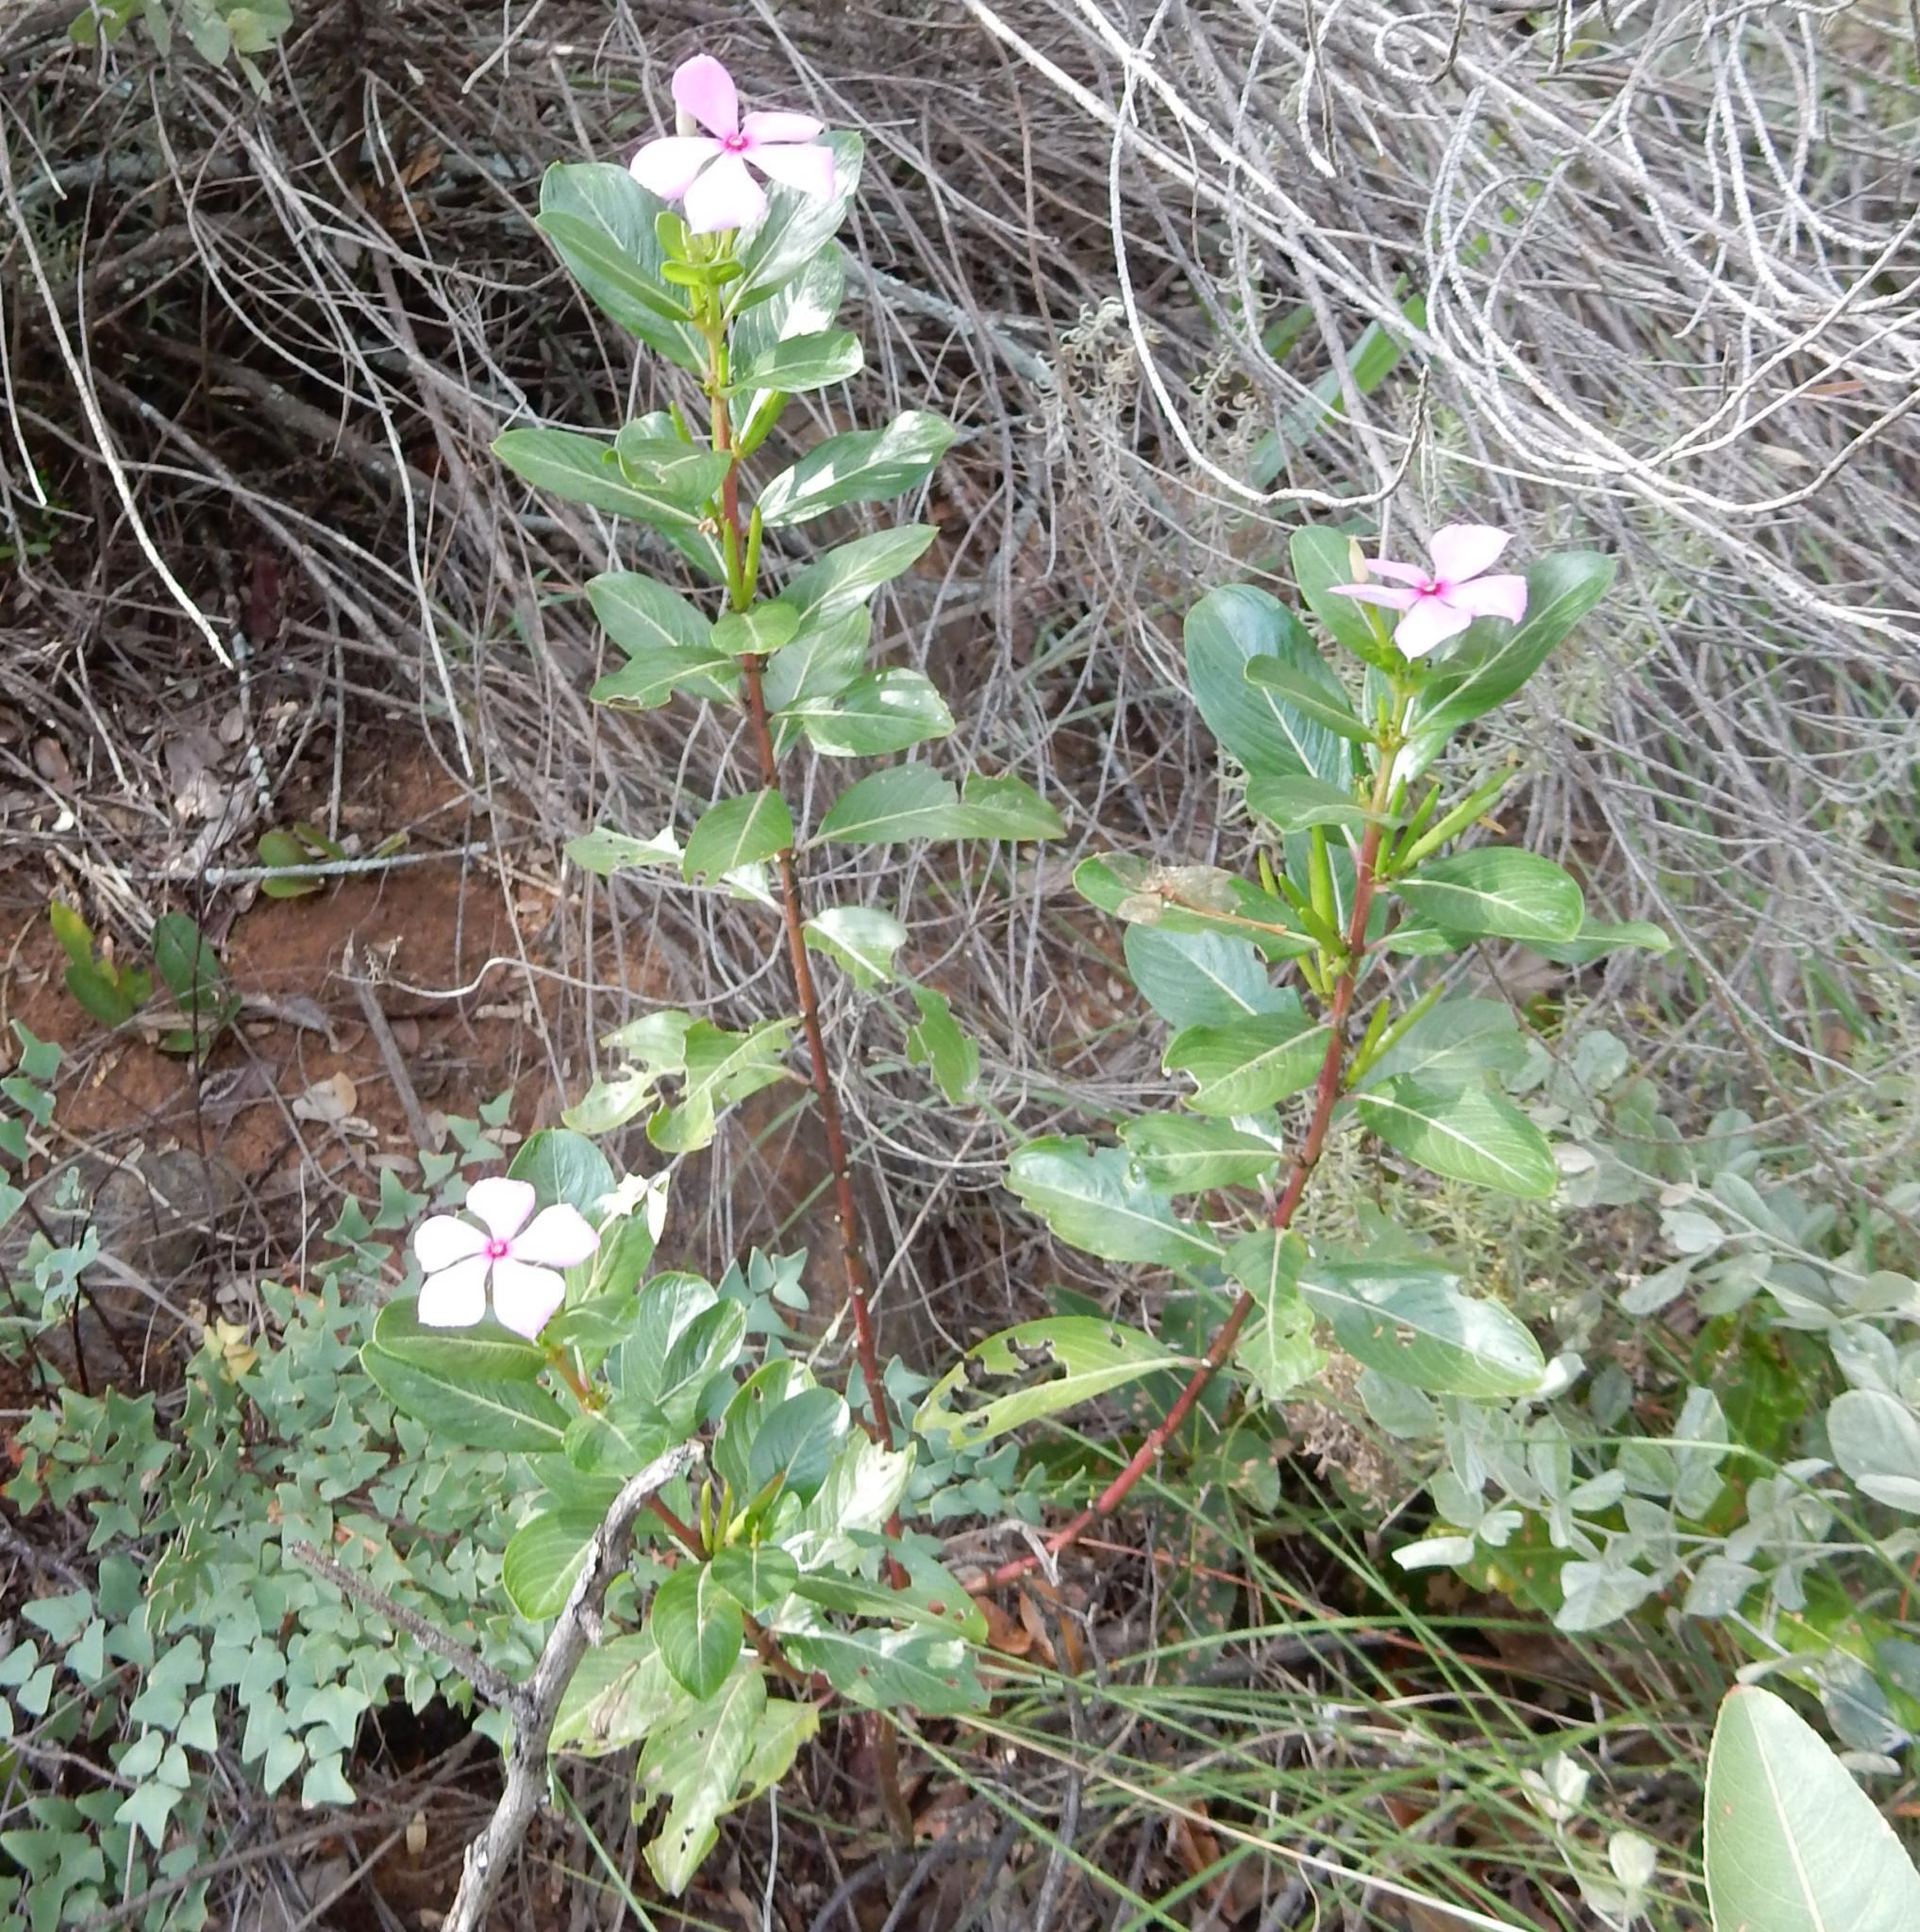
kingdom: Plantae
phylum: Tracheophyta
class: Magnoliopsida
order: Gentianales
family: Apocynaceae
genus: Catharanthus
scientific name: Catharanthus roseus
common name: Madagascar periwinkle
